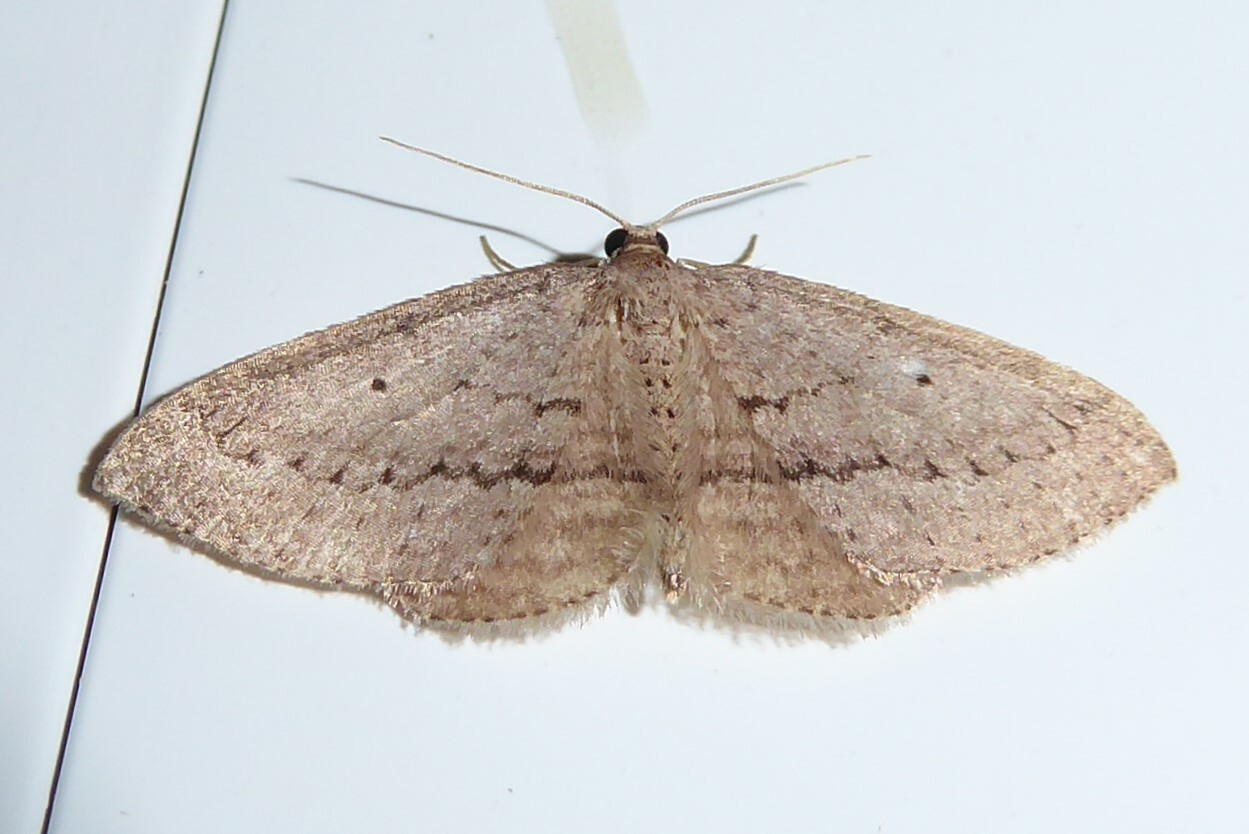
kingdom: Animalia
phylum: Arthropoda
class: Insecta
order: Lepidoptera
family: Geometridae
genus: Poecilasthena
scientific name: Poecilasthena schistaria
